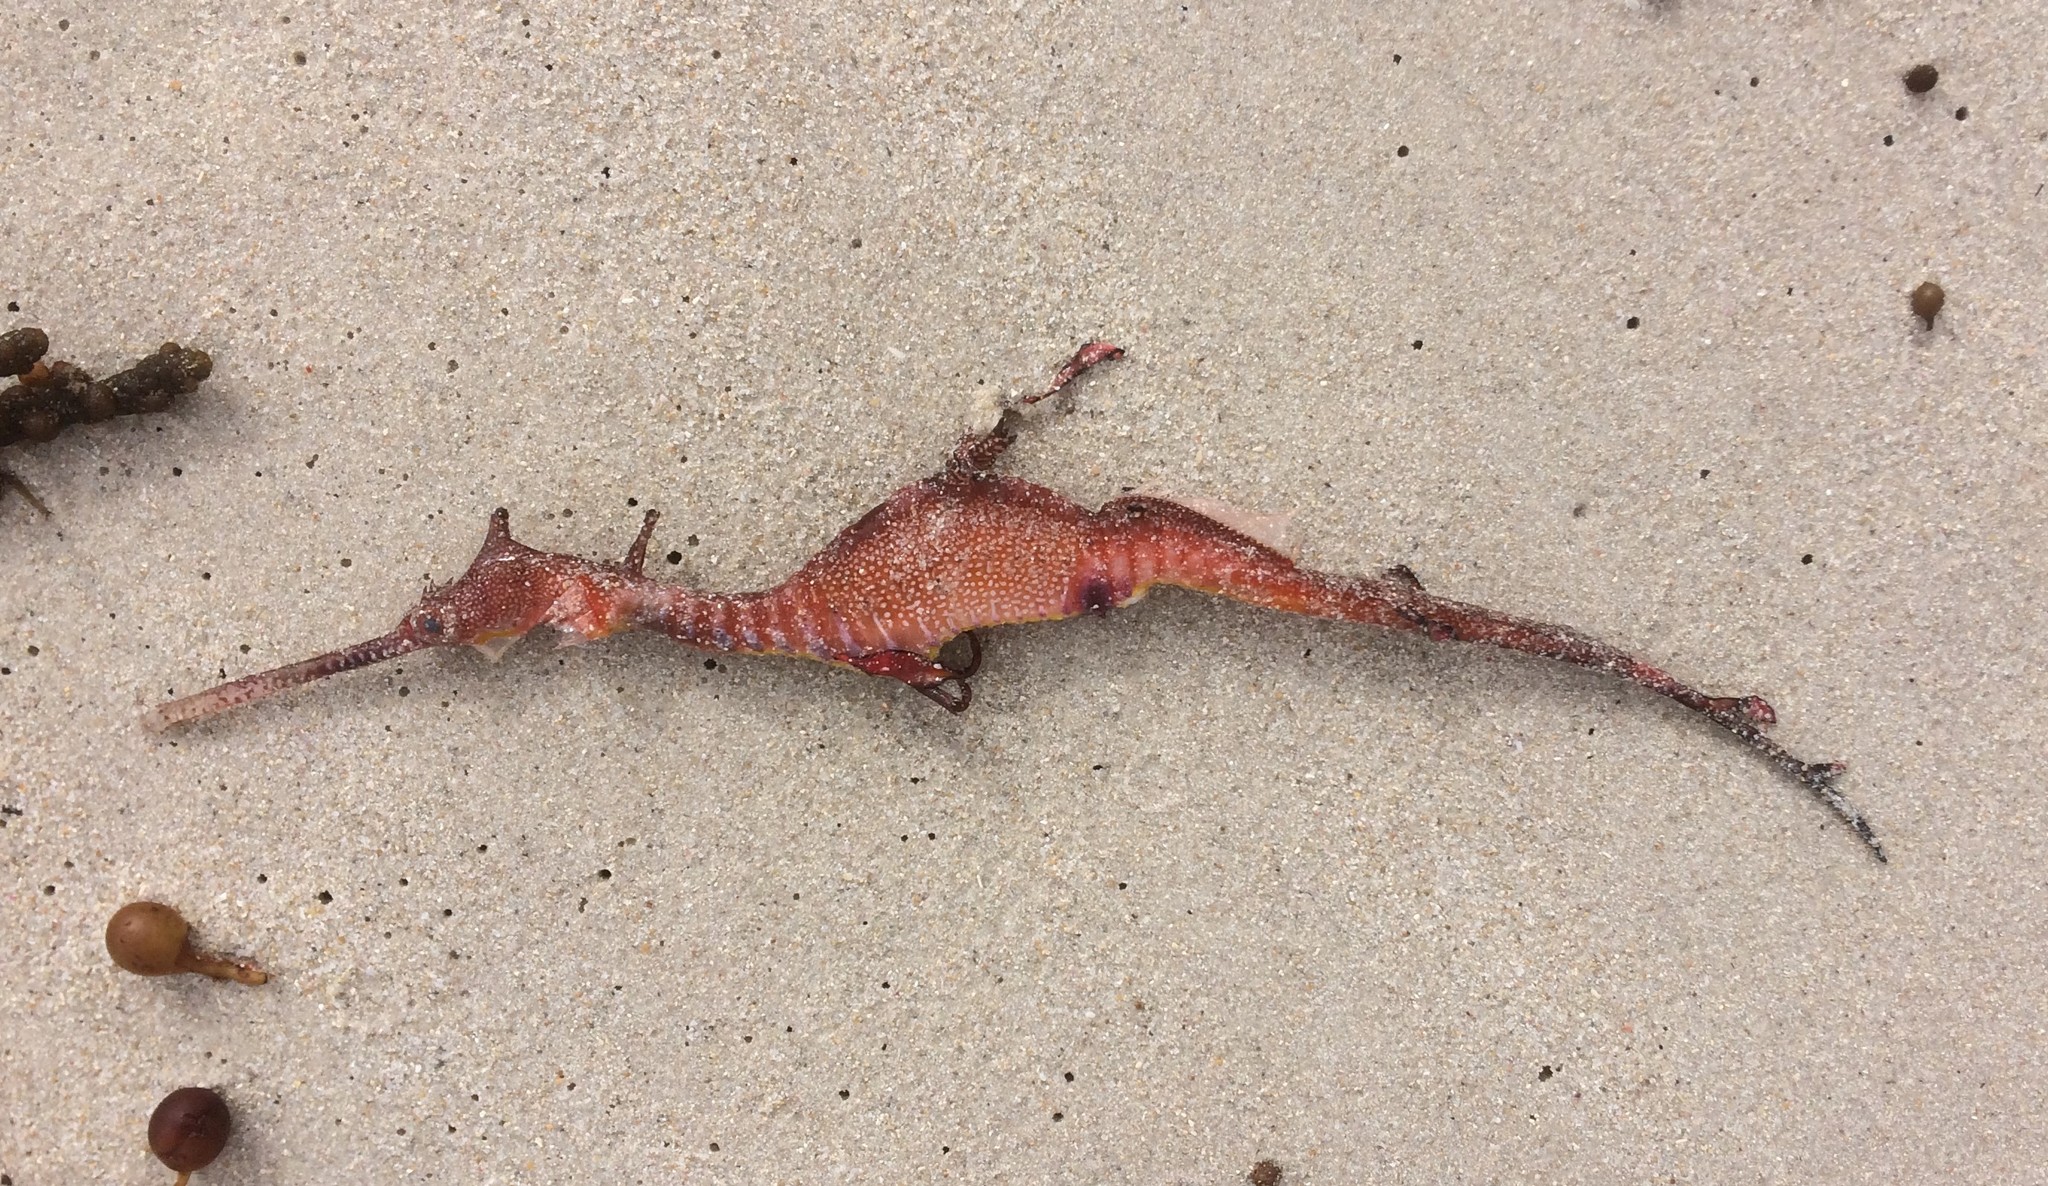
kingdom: Animalia
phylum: Chordata
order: Syngnathiformes
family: Syngnathidae
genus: Phyllopteryx
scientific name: Phyllopteryx taeniolatus
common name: Common seadragon
